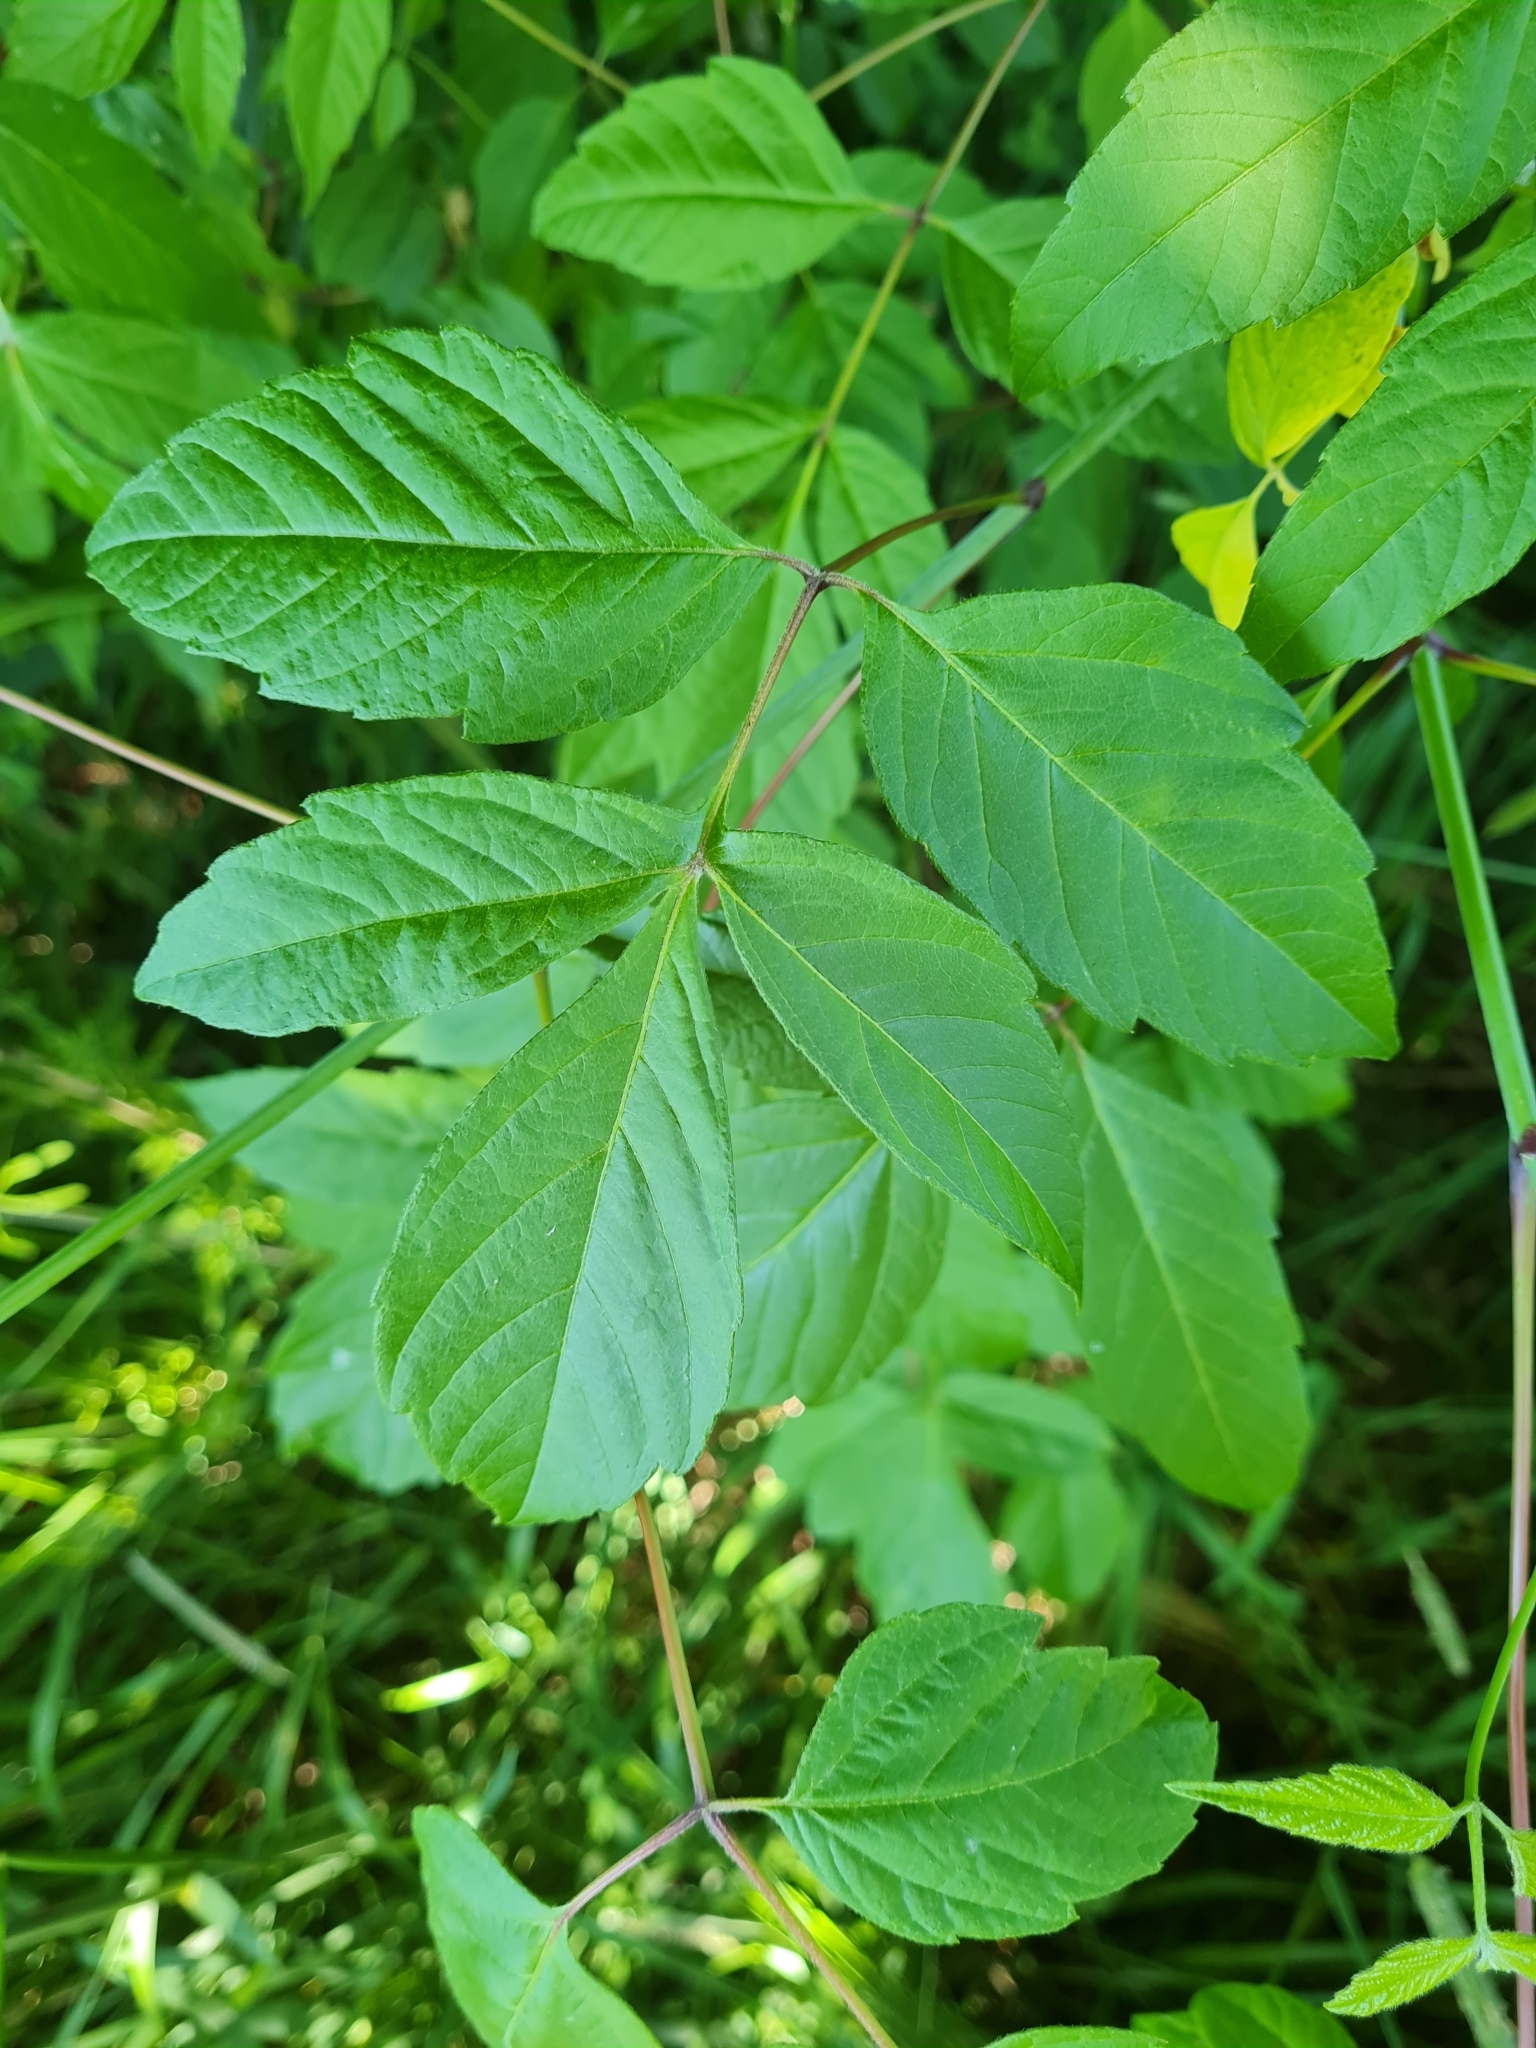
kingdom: Plantae
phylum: Tracheophyta
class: Magnoliopsida
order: Sapindales
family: Sapindaceae
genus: Acer
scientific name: Acer negundo
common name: Ashleaf maple
